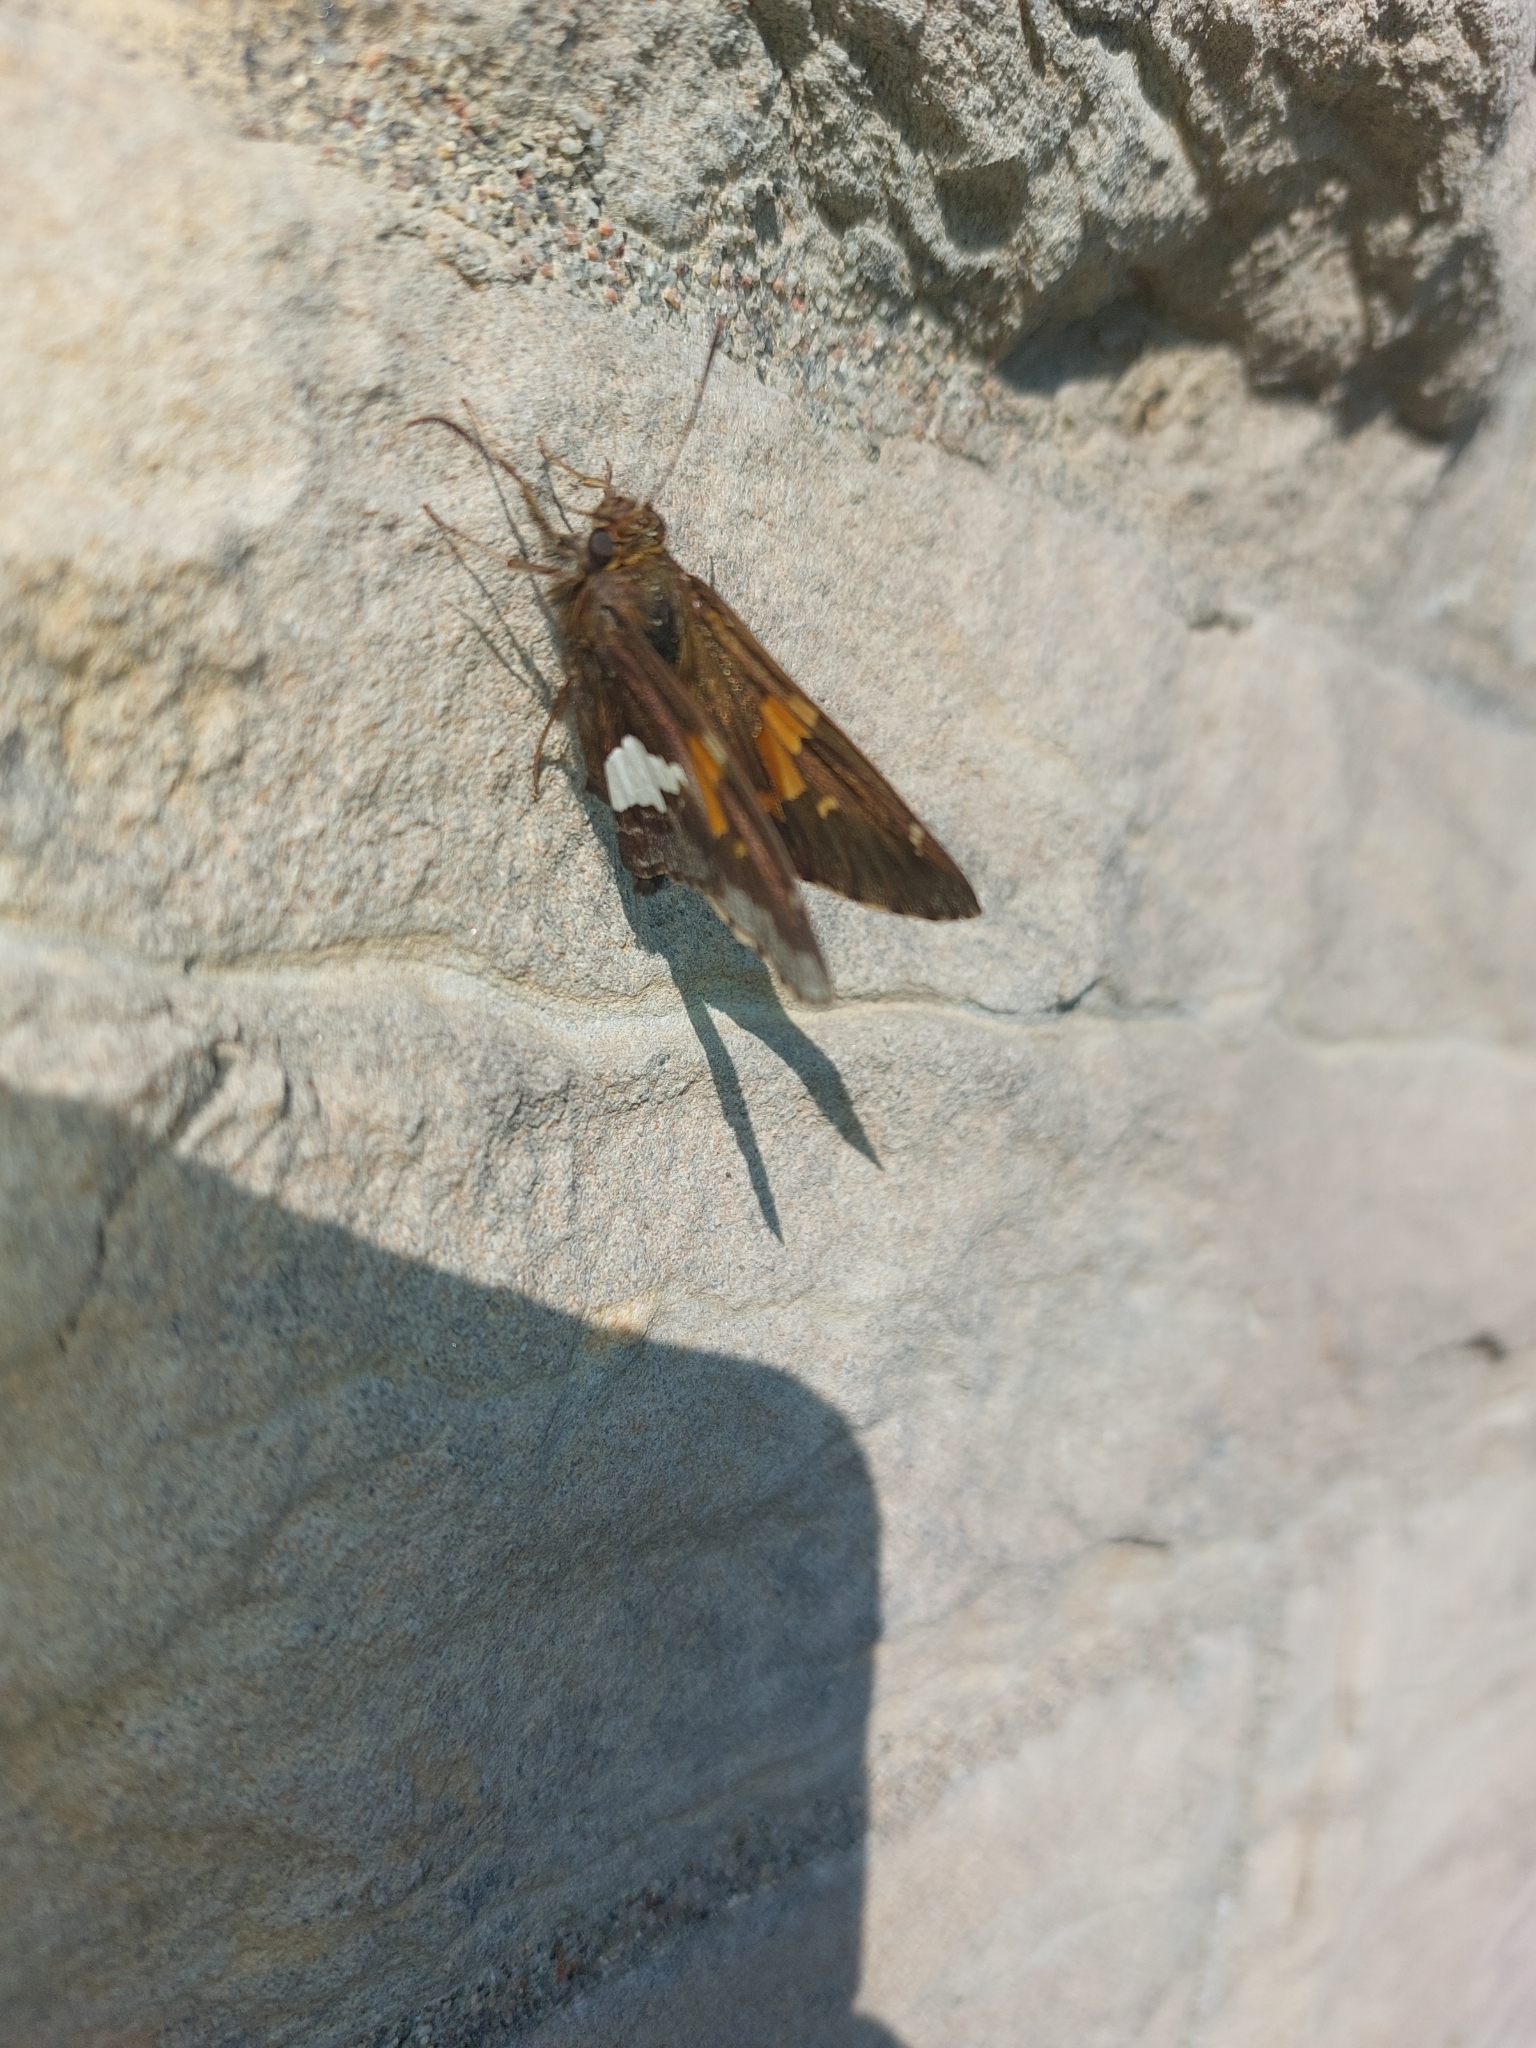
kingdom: Animalia
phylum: Arthropoda
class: Insecta
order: Lepidoptera
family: Hesperiidae
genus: Epargyreus
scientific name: Epargyreus clarus
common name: Silver-spotted skipper
